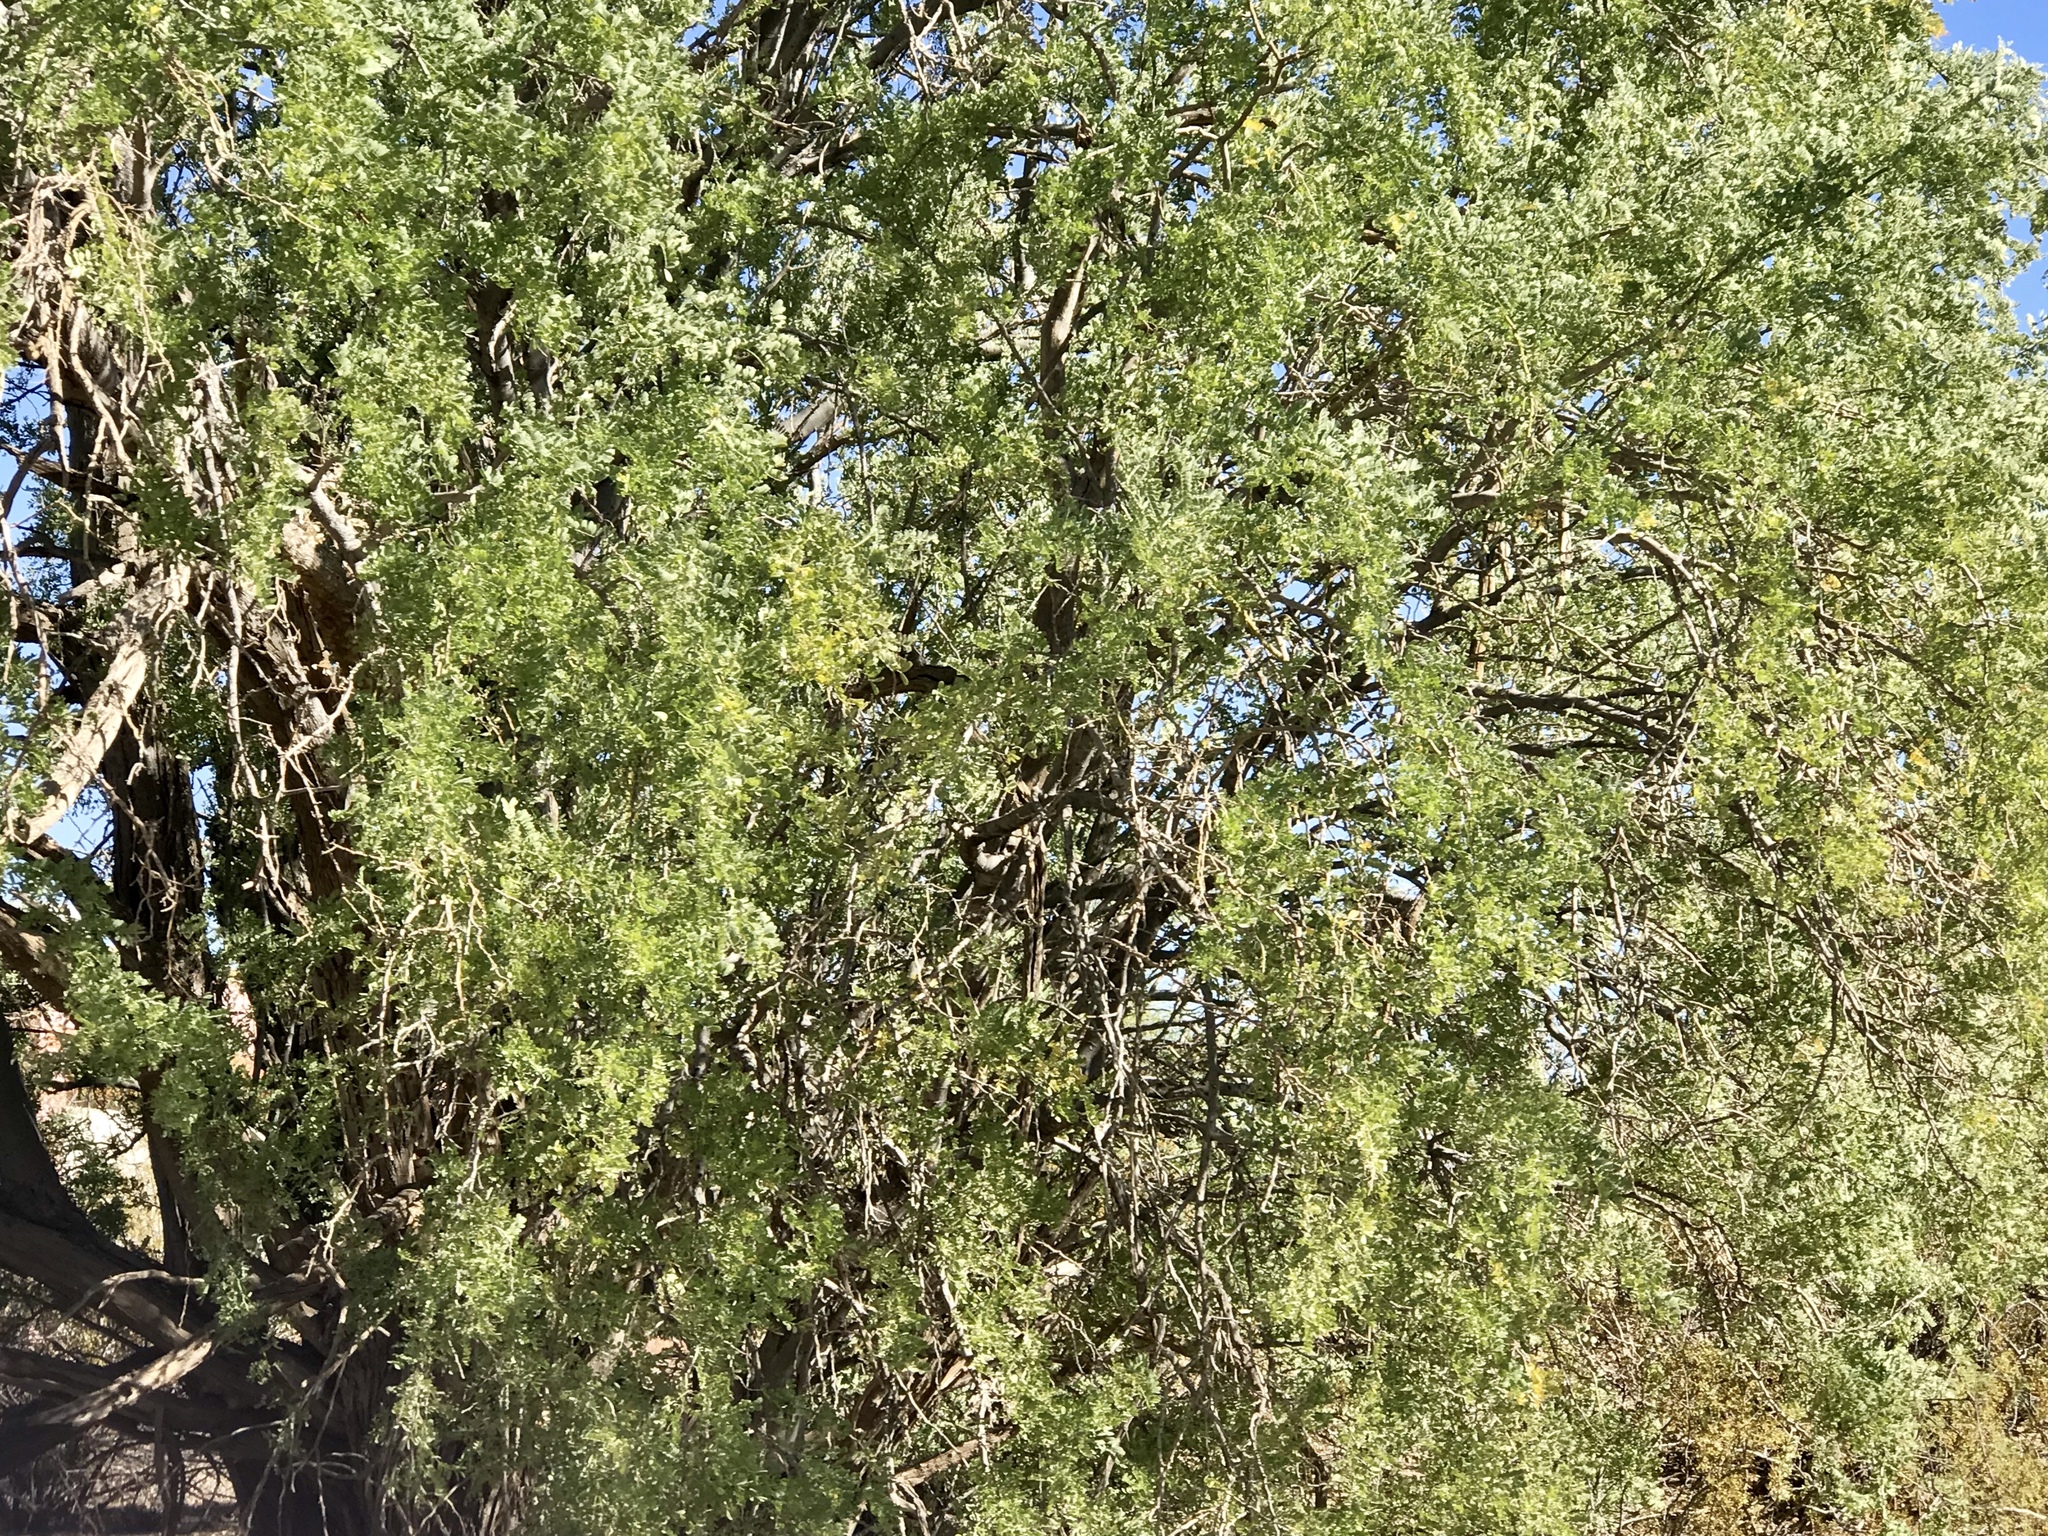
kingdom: Plantae
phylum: Tracheophyta
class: Magnoliopsida
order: Fabales
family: Fabaceae
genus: Olneya
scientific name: Olneya tesota
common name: Desert ironwood
